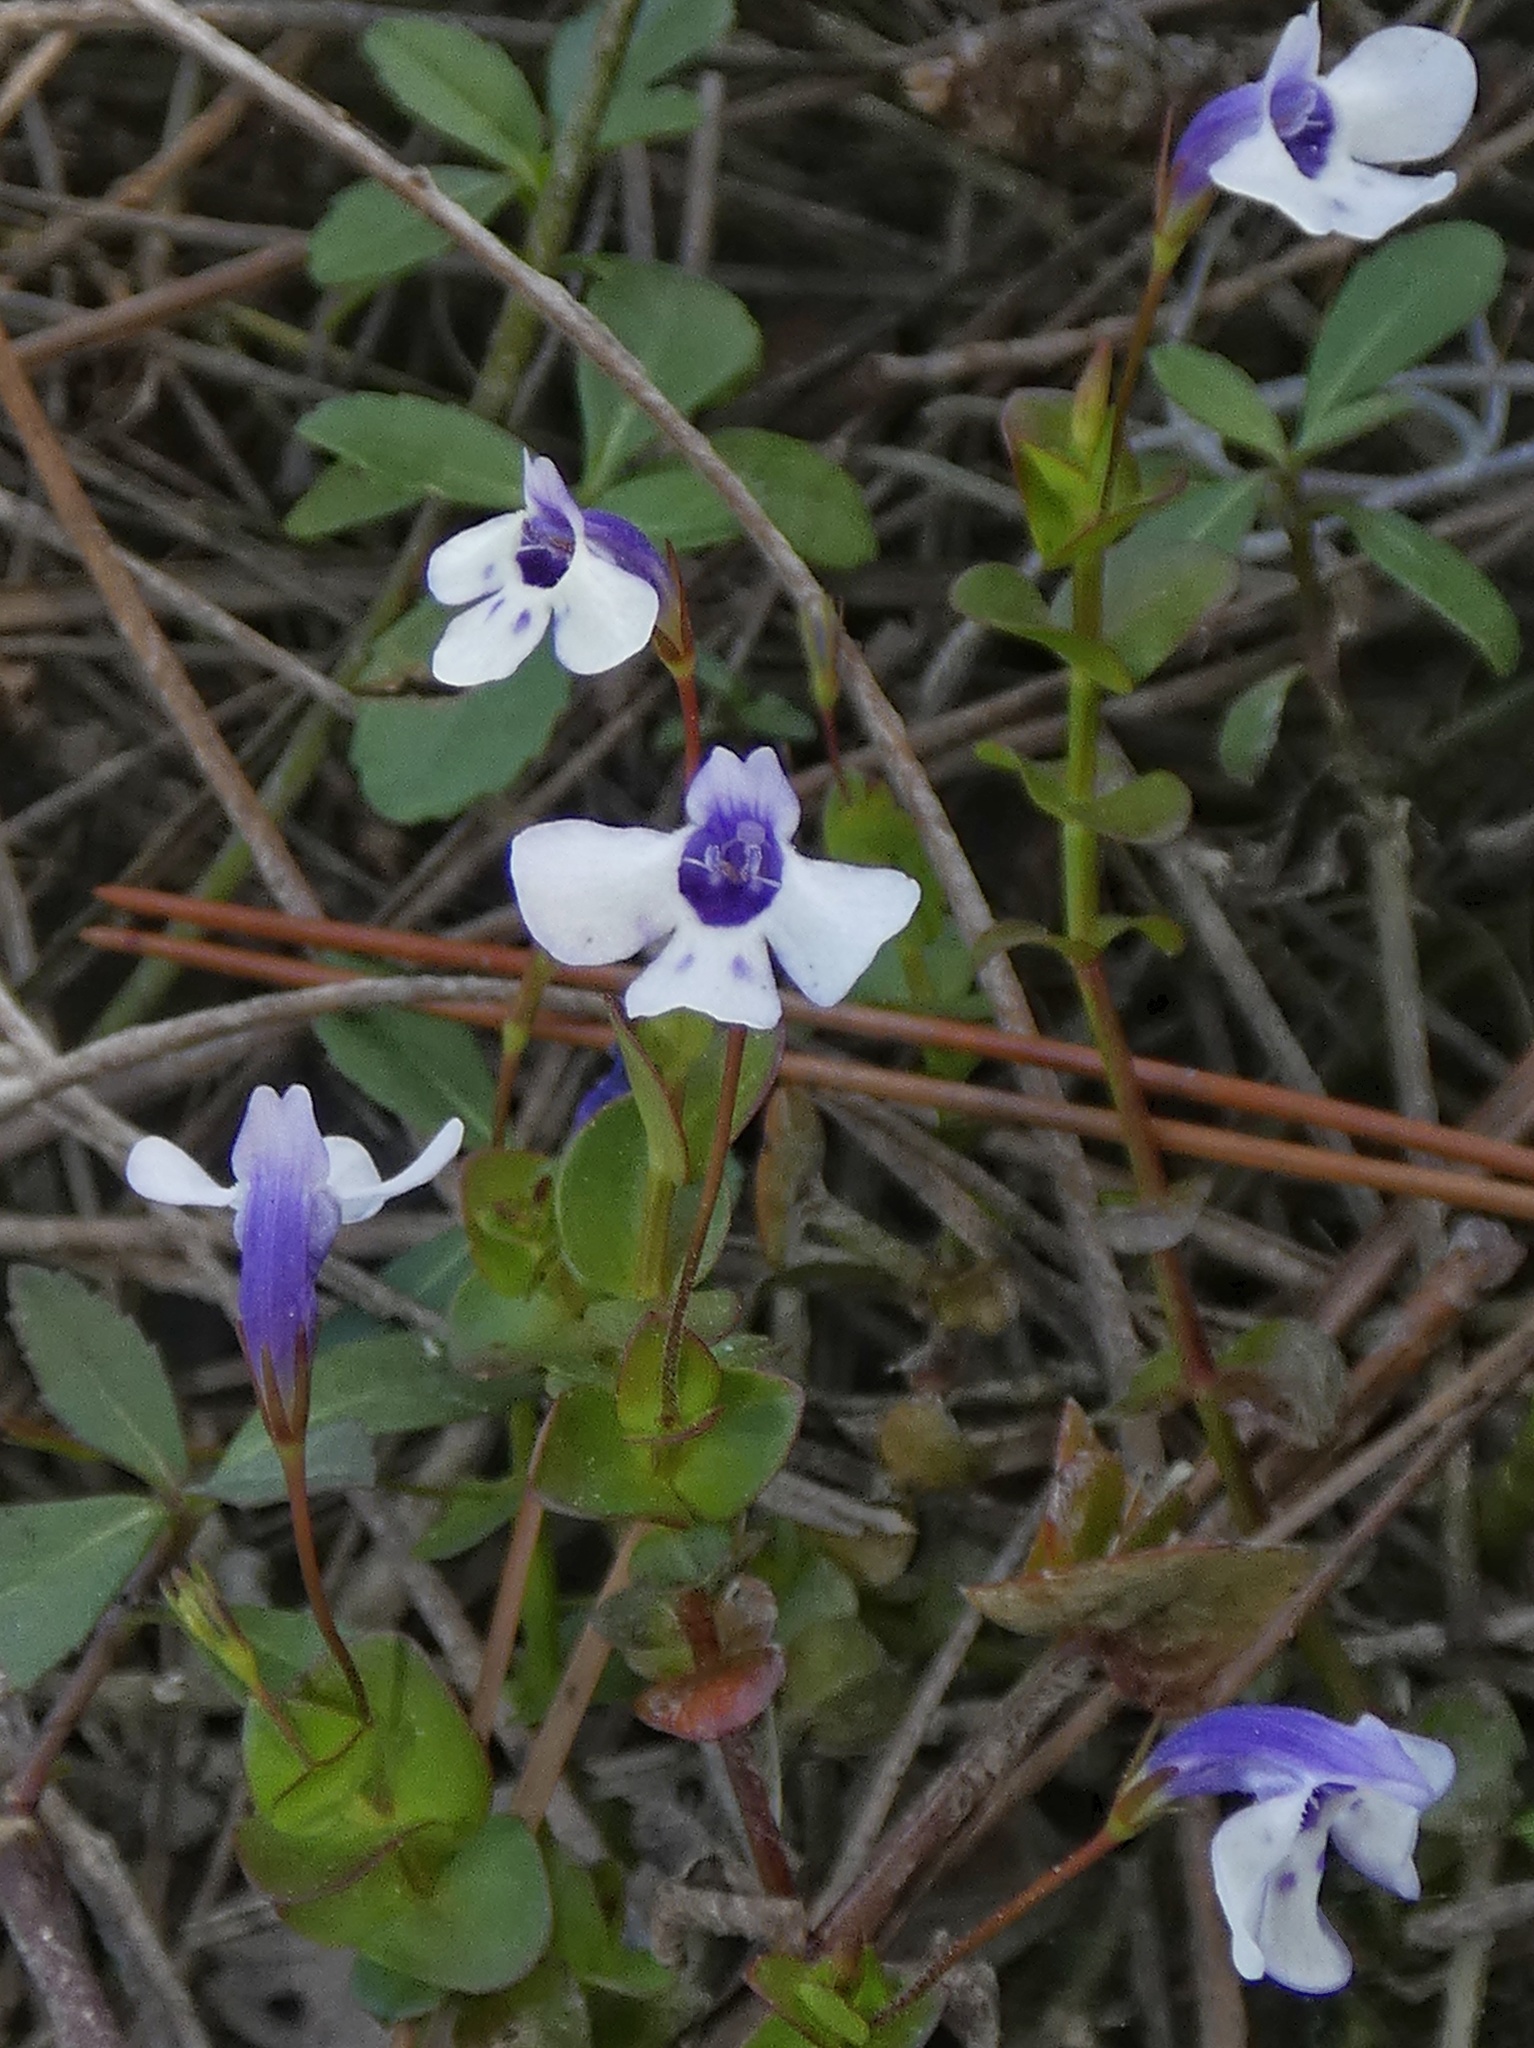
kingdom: Plantae
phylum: Tracheophyta
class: Magnoliopsida
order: Lamiales
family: Linderniaceae
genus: Lindernia
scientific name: Lindernia grandiflora
